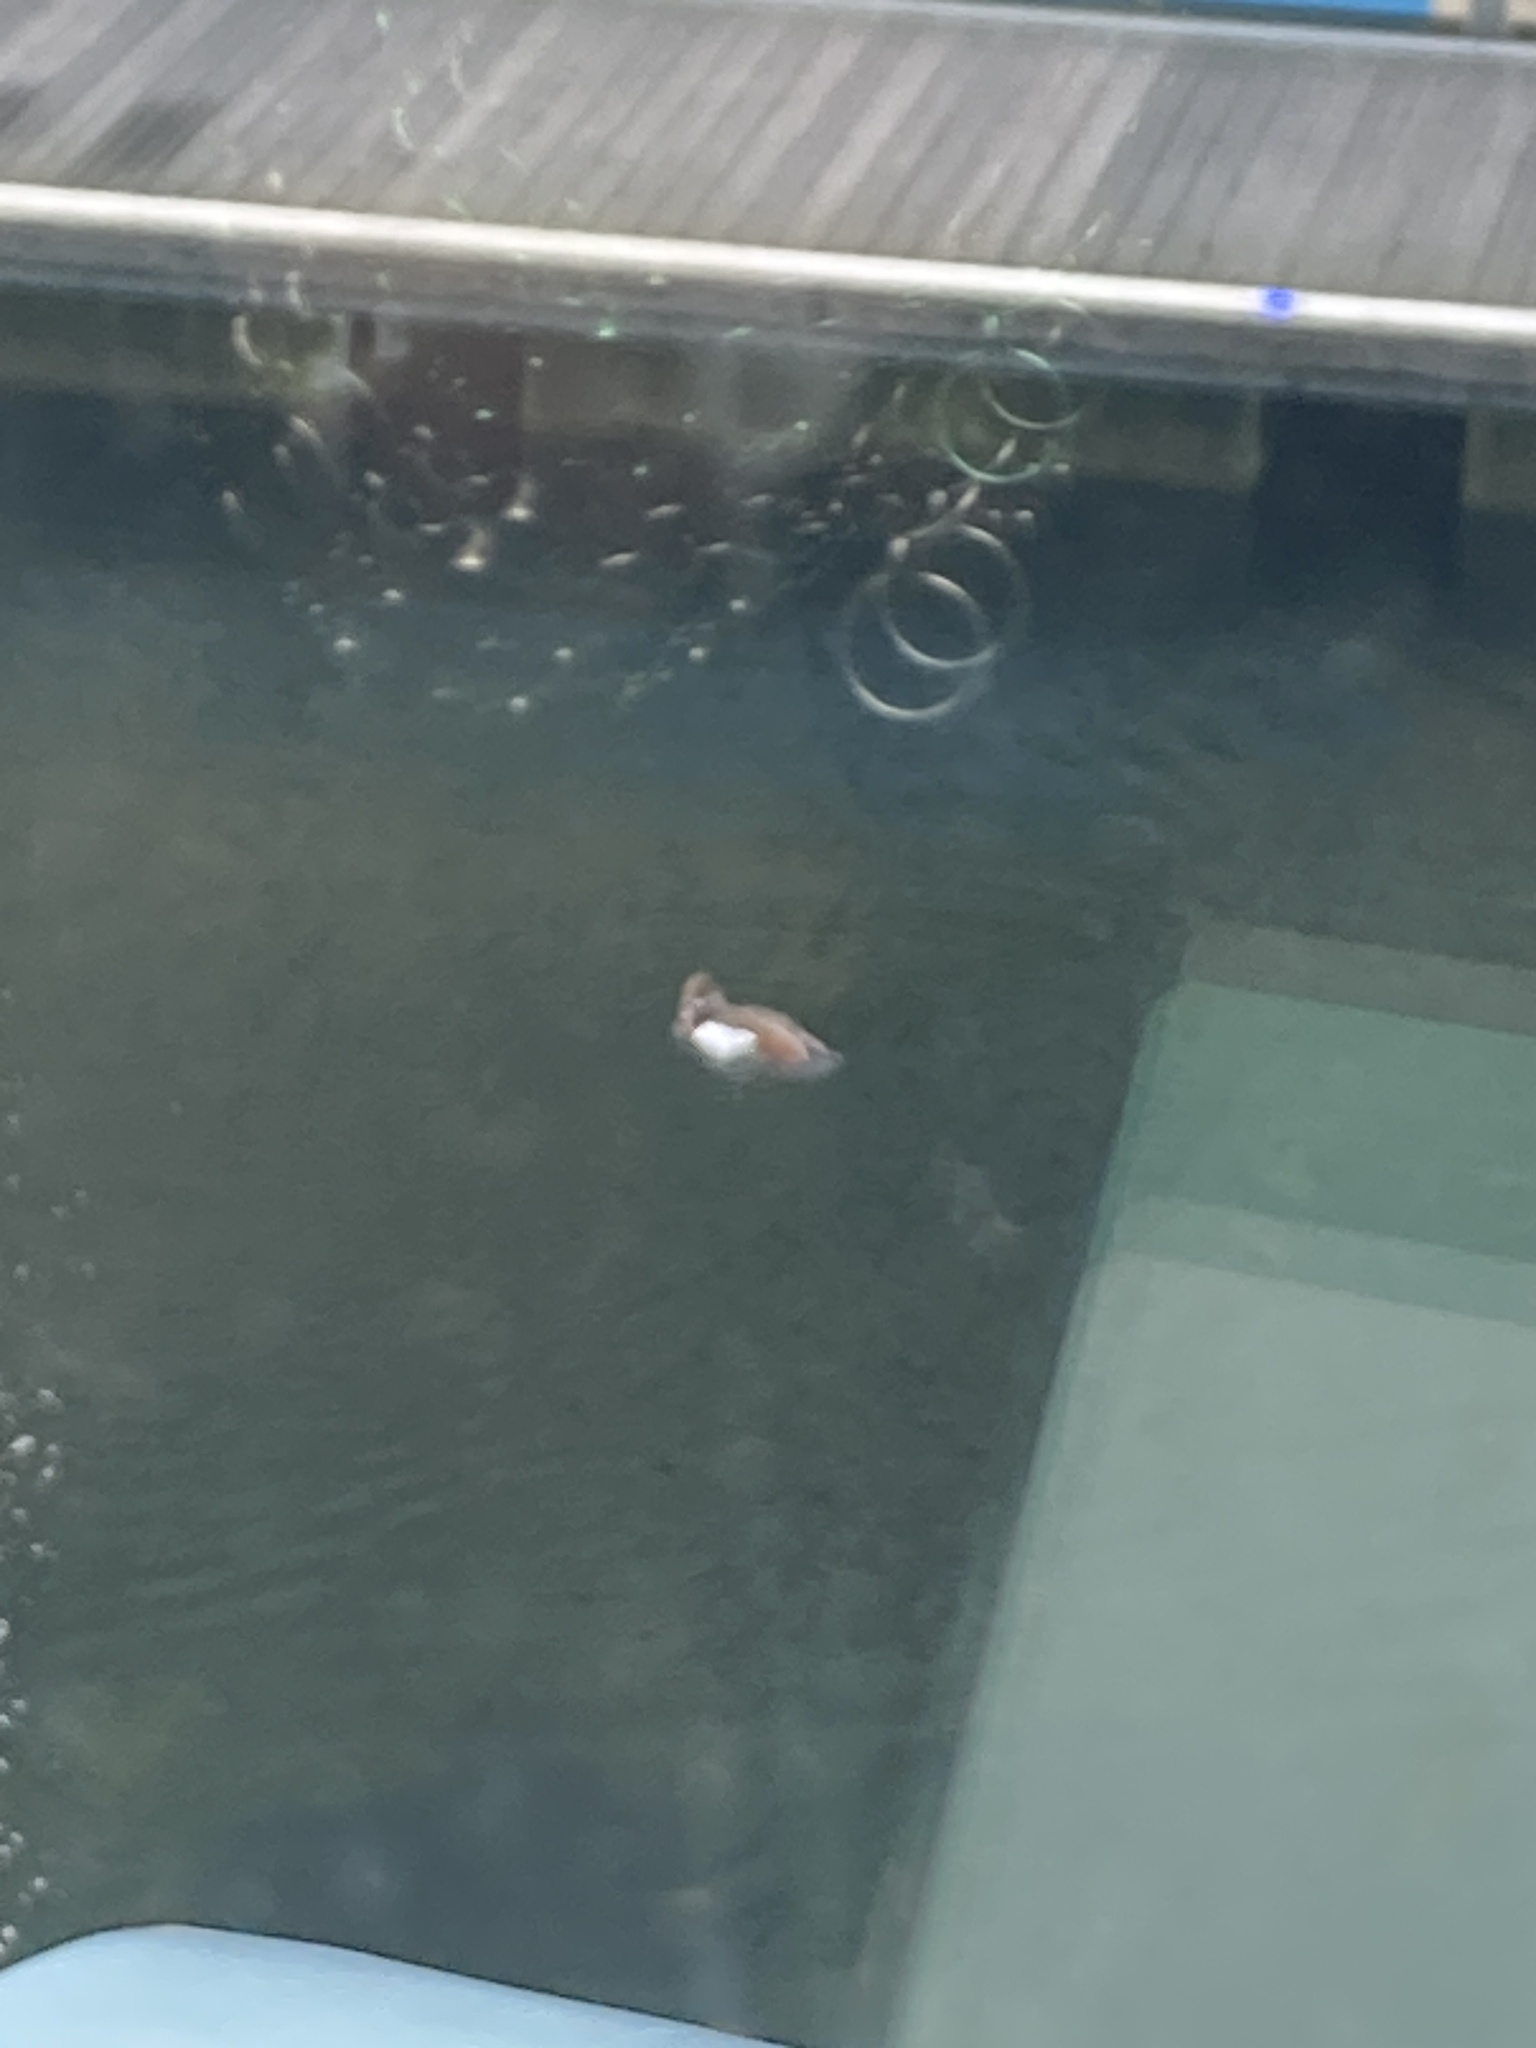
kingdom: Animalia
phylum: Chordata
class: Aves
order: Anseriformes
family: Anatidae
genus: Alopochen
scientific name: Alopochen aegyptiaca
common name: Egyptian goose
